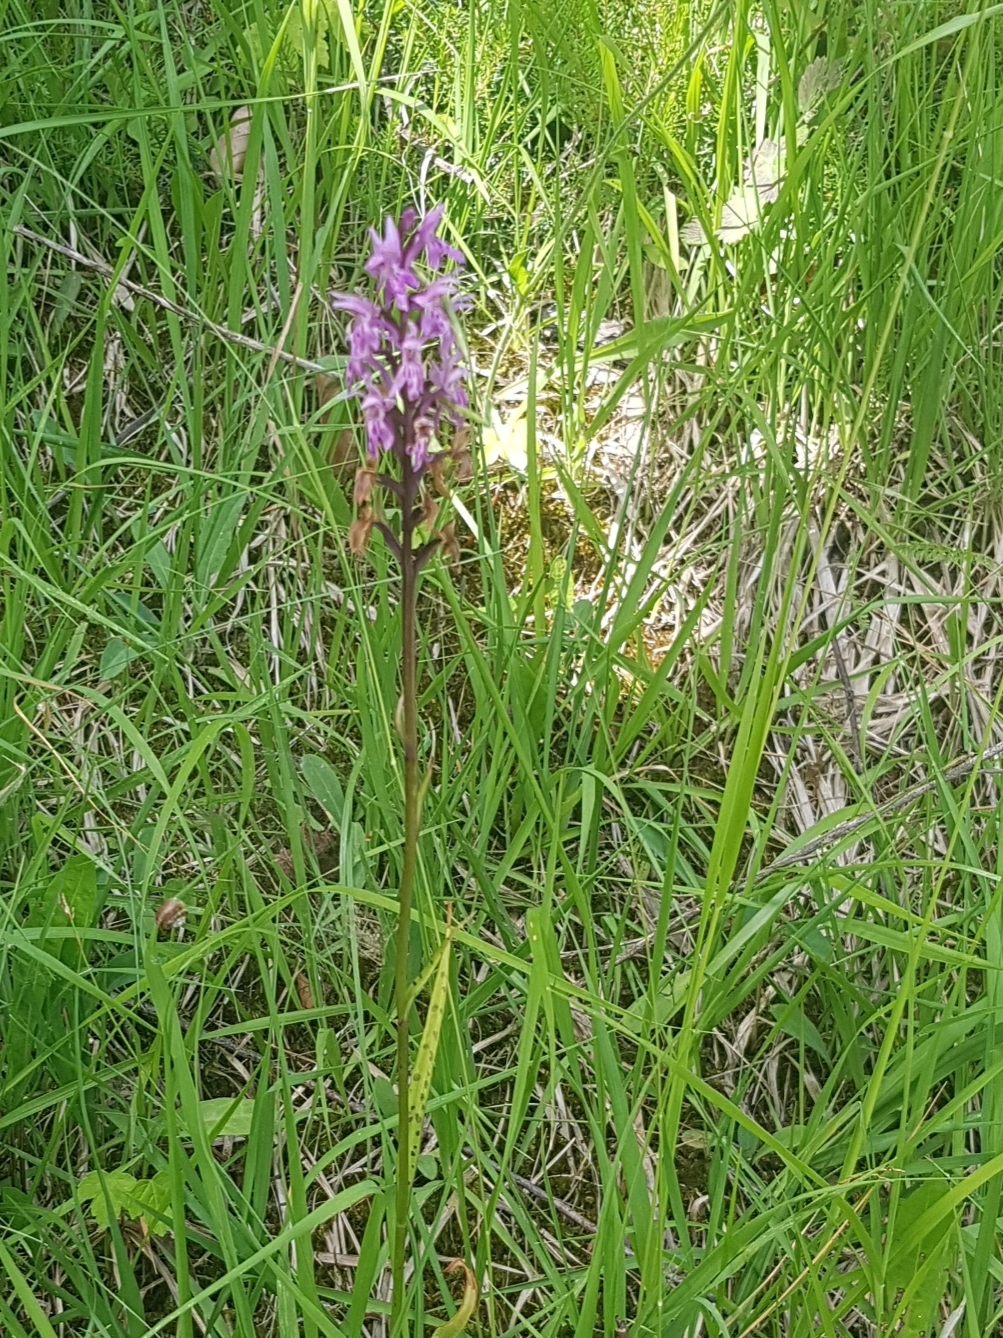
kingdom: Plantae
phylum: Tracheophyta
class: Liliopsida
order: Asparagales
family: Orchidaceae
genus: Dactylorhiza
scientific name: Dactylorhiza maculata
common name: Heath spotted-orchid
